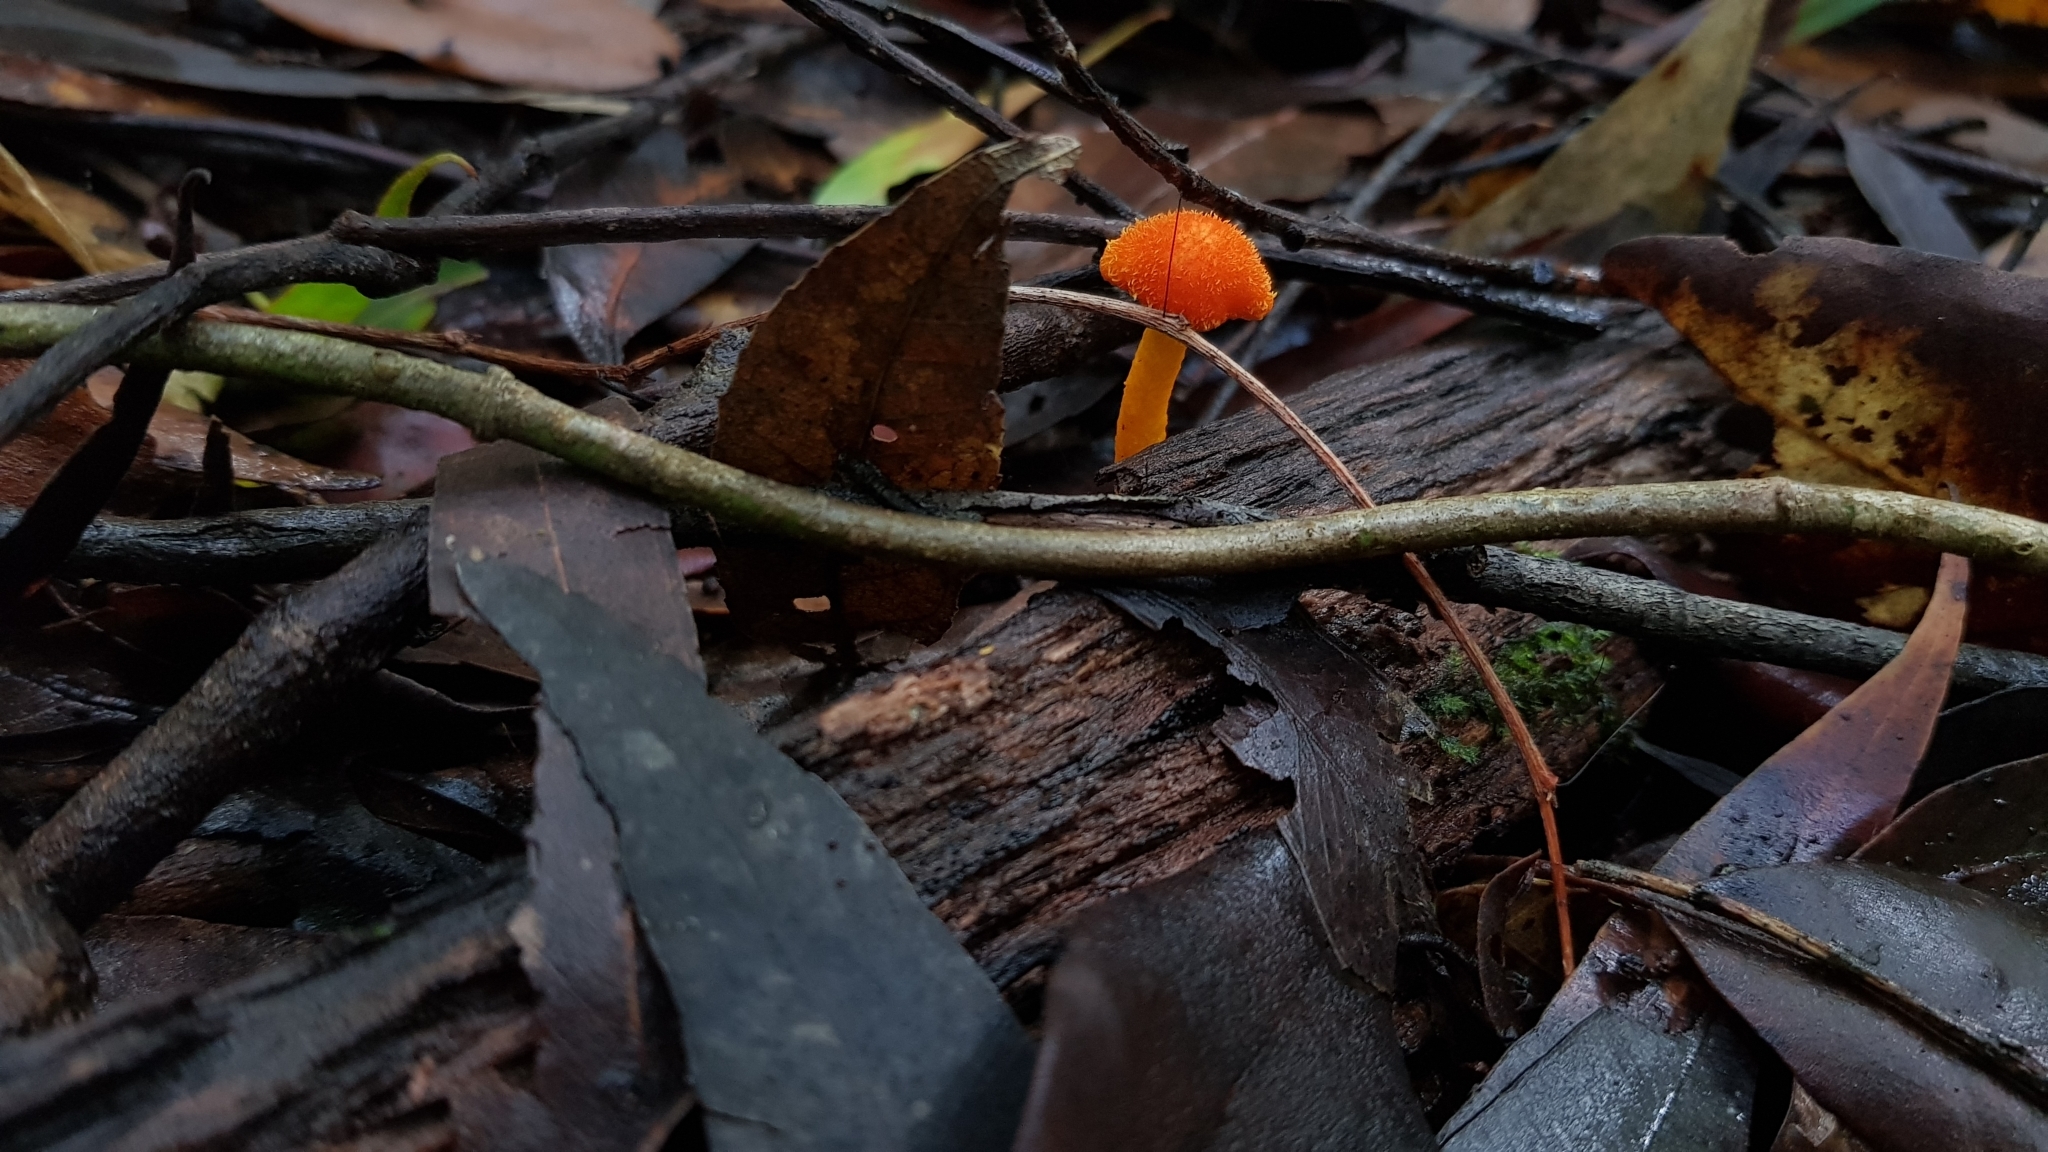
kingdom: Fungi
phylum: Basidiomycota
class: Agaricomycetes
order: Agaricales
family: Physalacriaceae
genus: Cyptotrama
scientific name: Cyptotrama asprata
